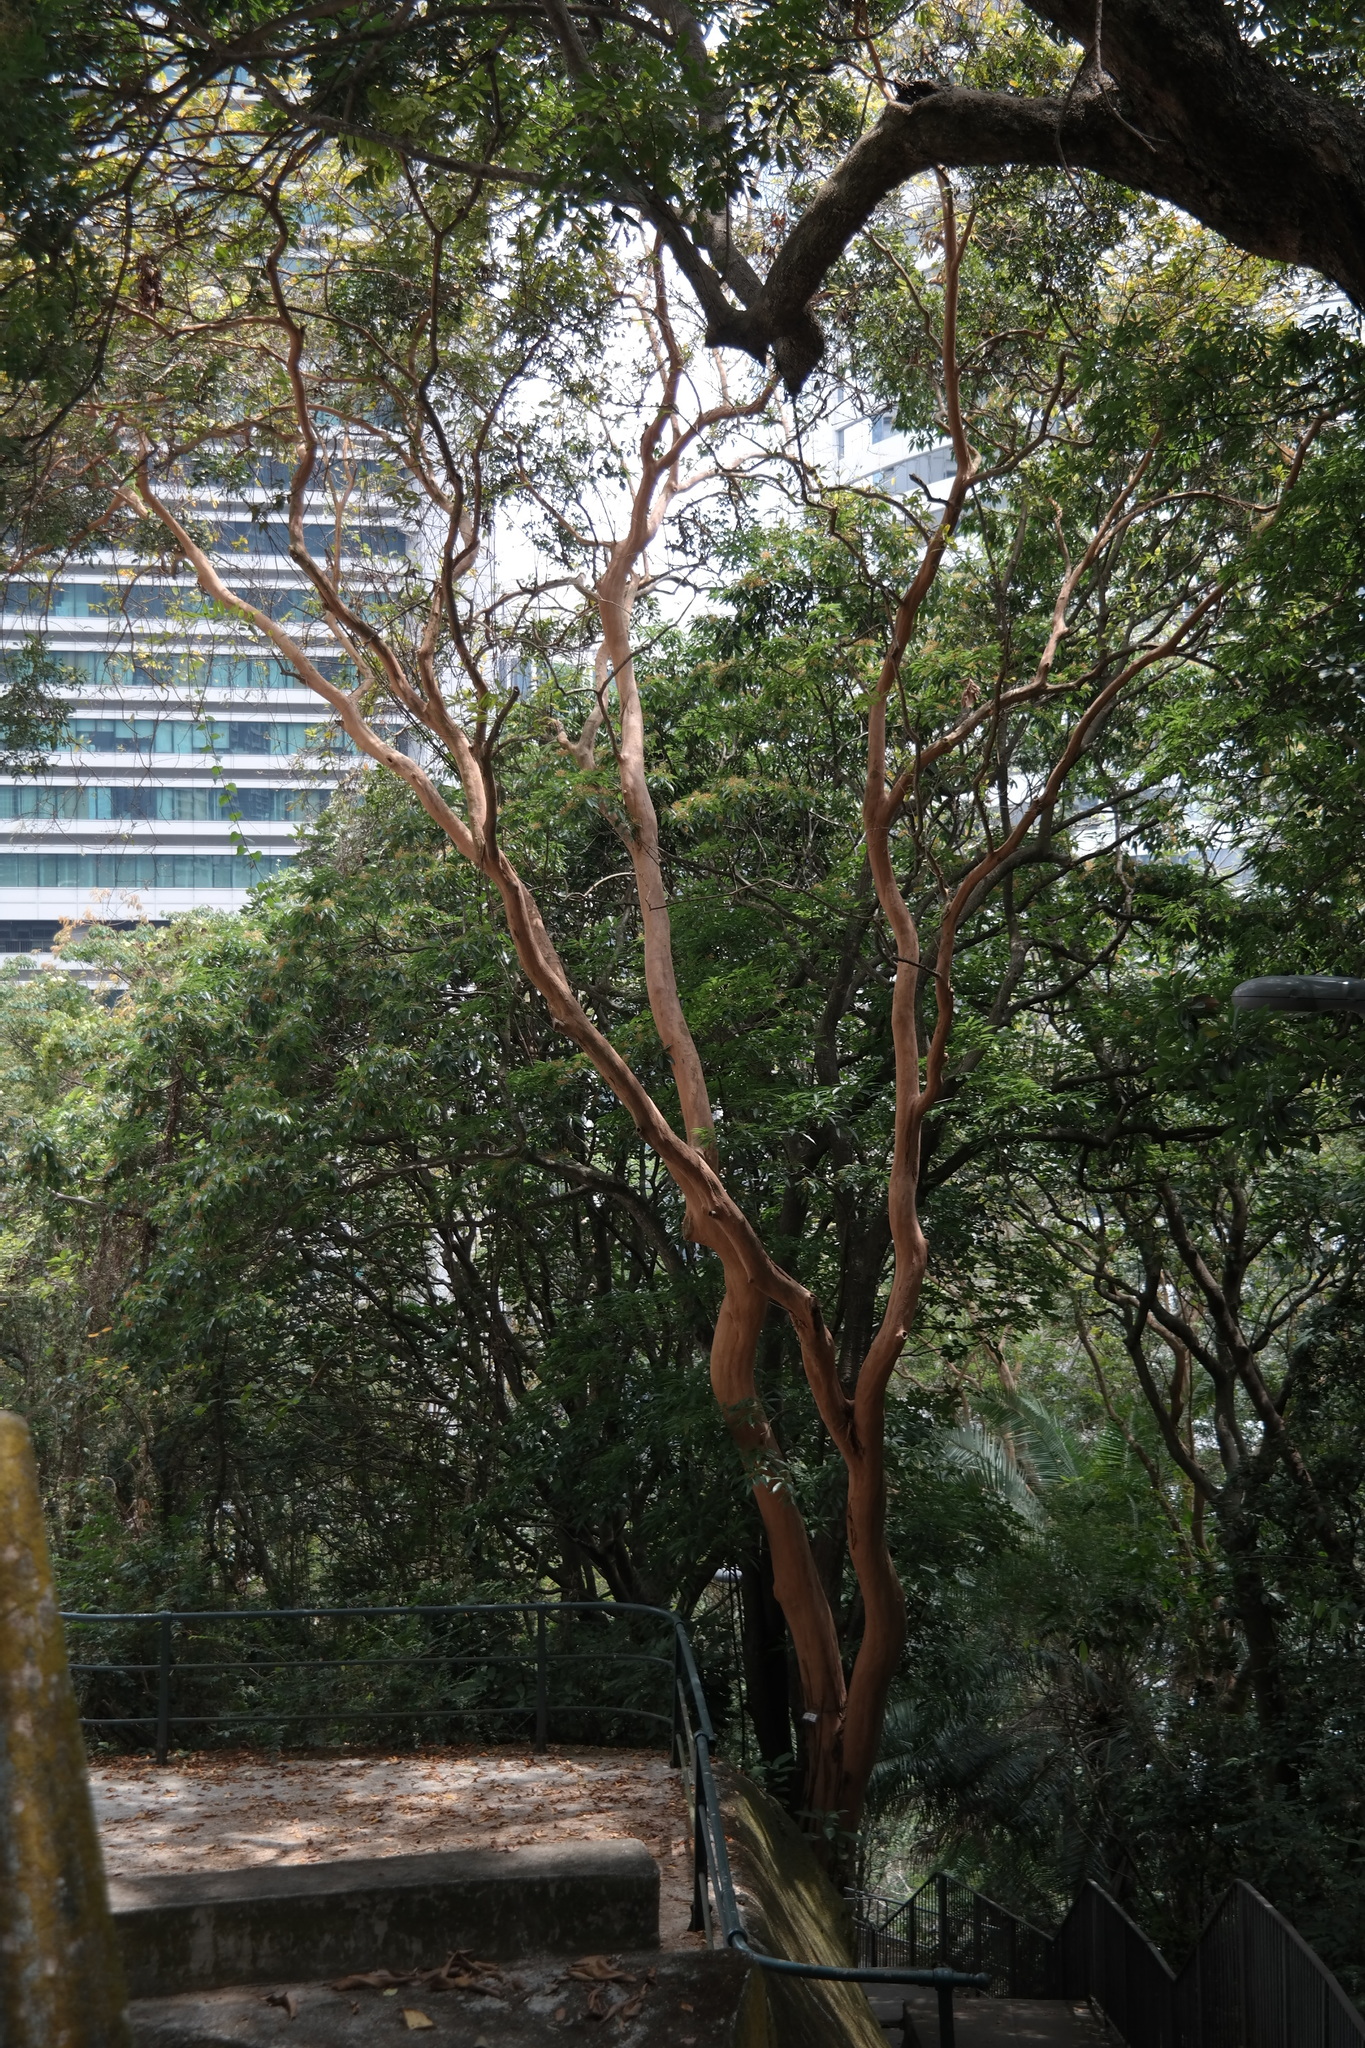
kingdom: Plantae
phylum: Tracheophyta
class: Magnoliopsida
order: Malpighiales
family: Hypericaceae
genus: Cratoxylum
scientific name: Cratoxylum cochinchinense
